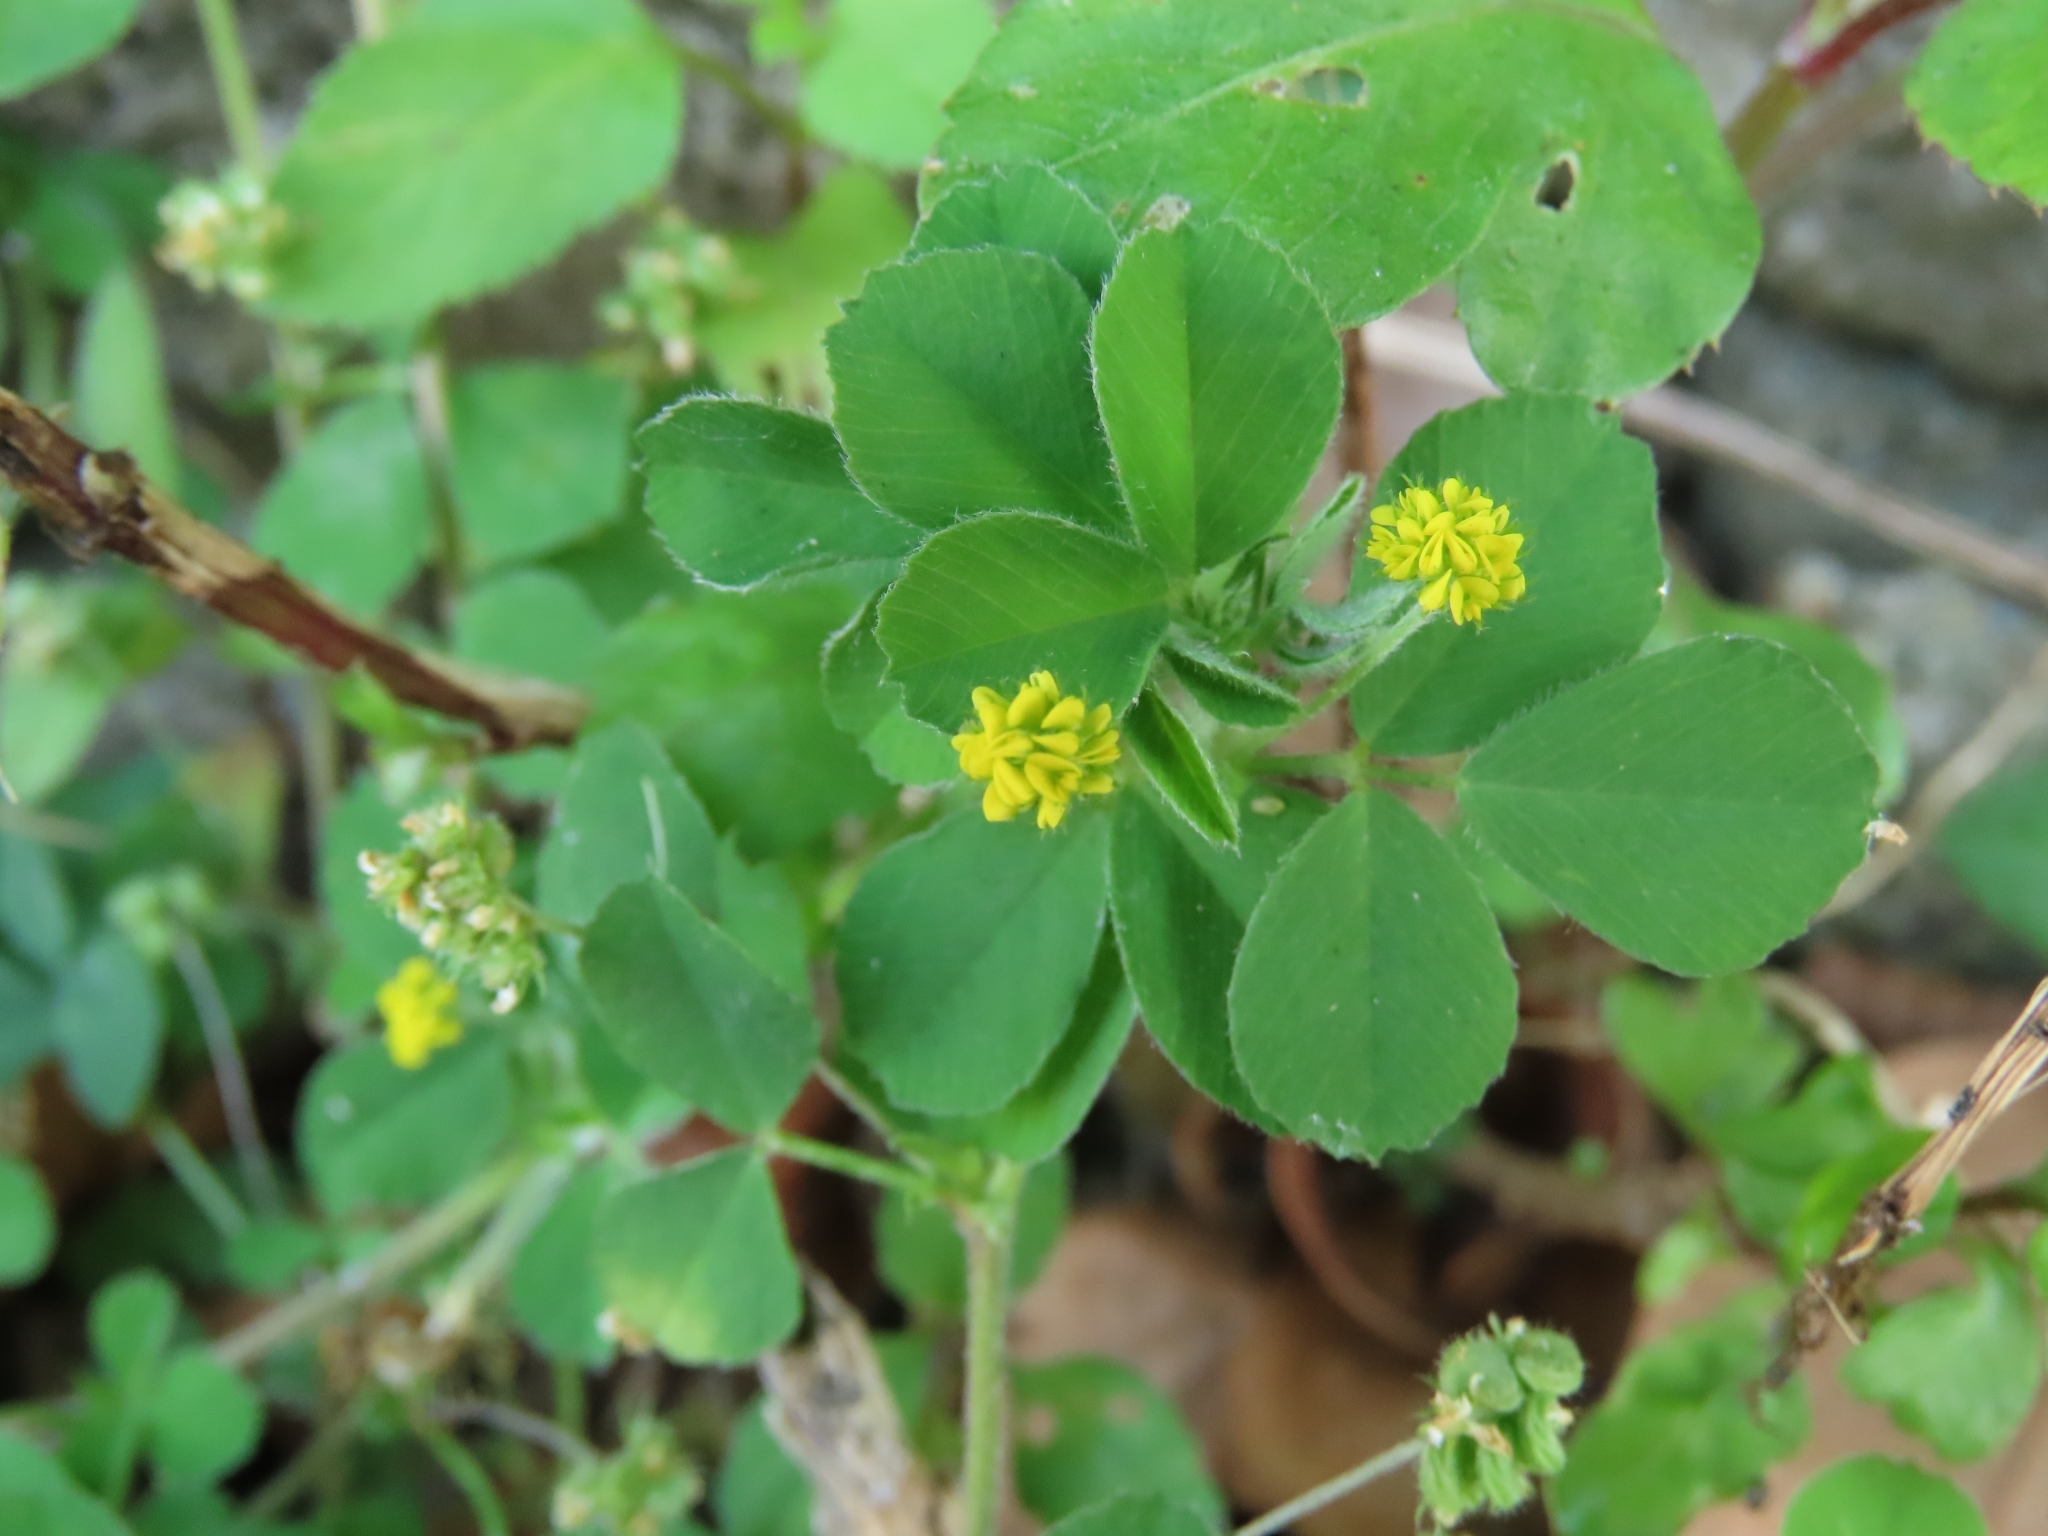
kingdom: Plantae
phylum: Tracheophyta
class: Magnoliopsida
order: Fabales
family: Fabaceae
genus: Medicago
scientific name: Medicago lupulina
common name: Black medick
